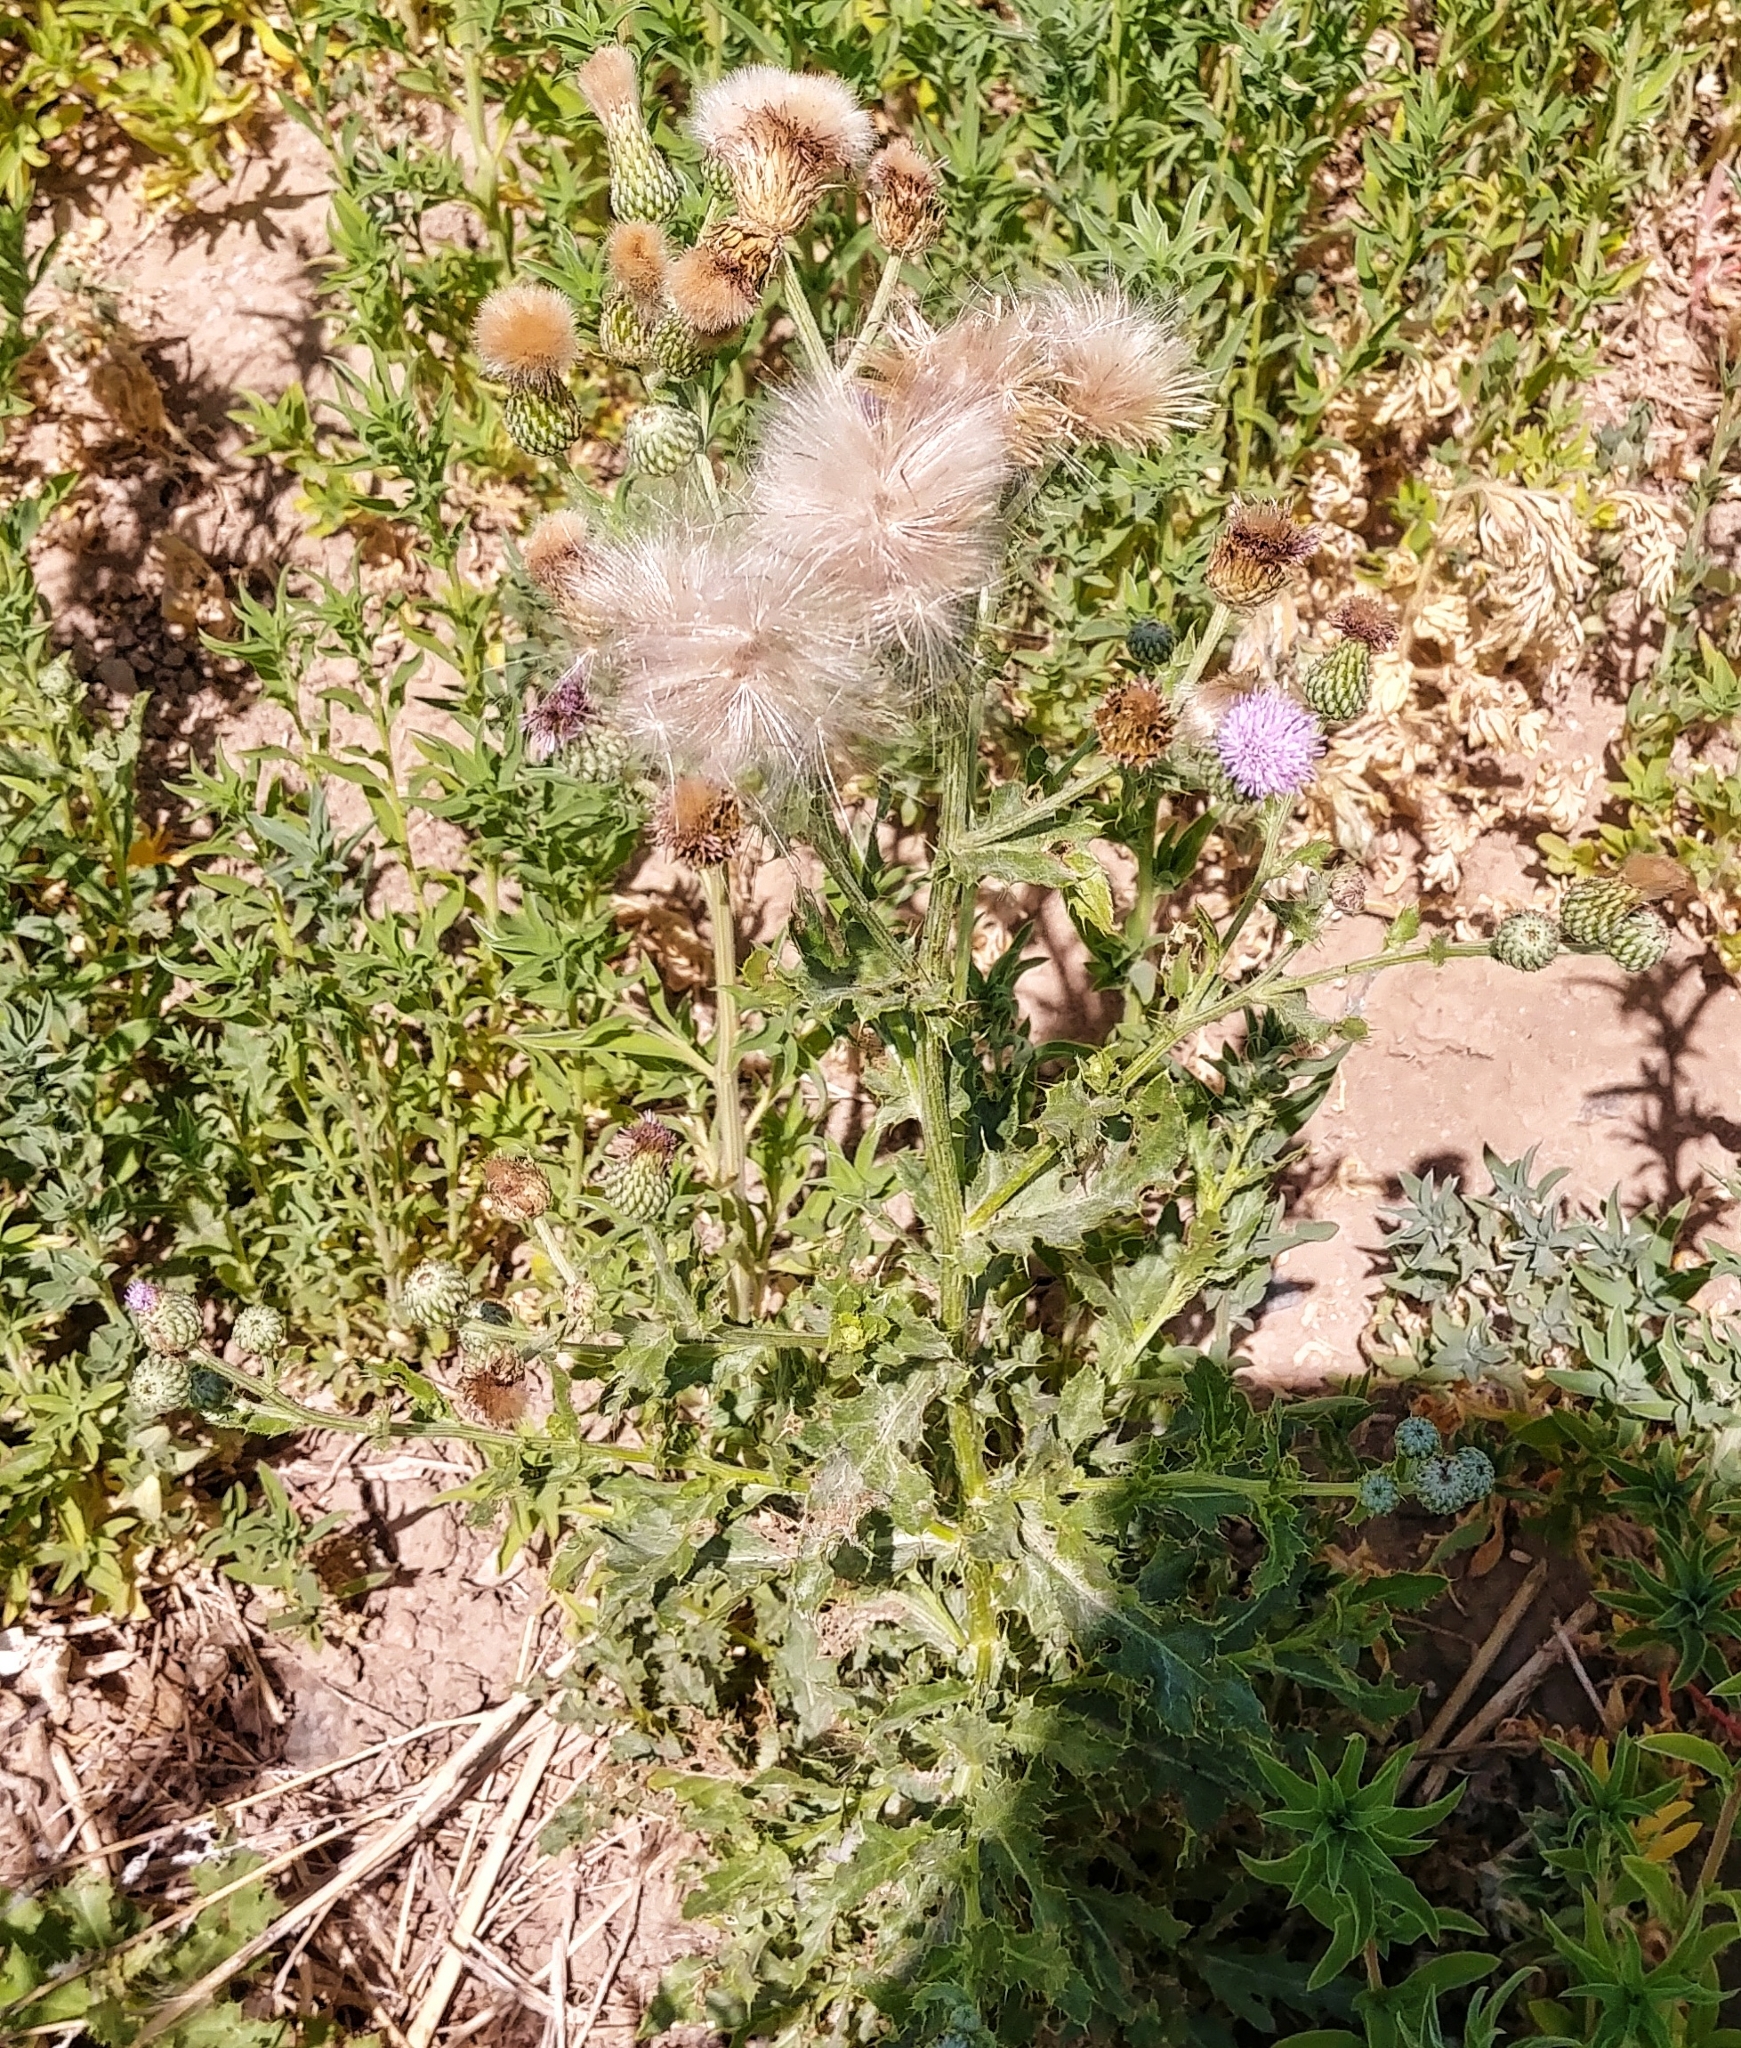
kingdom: Plantae
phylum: Tracheophyta
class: Magnoliopsida
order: Asterales
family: Asteraceae
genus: Cirsium
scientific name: Cirsium arvense
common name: Creeping thistle
